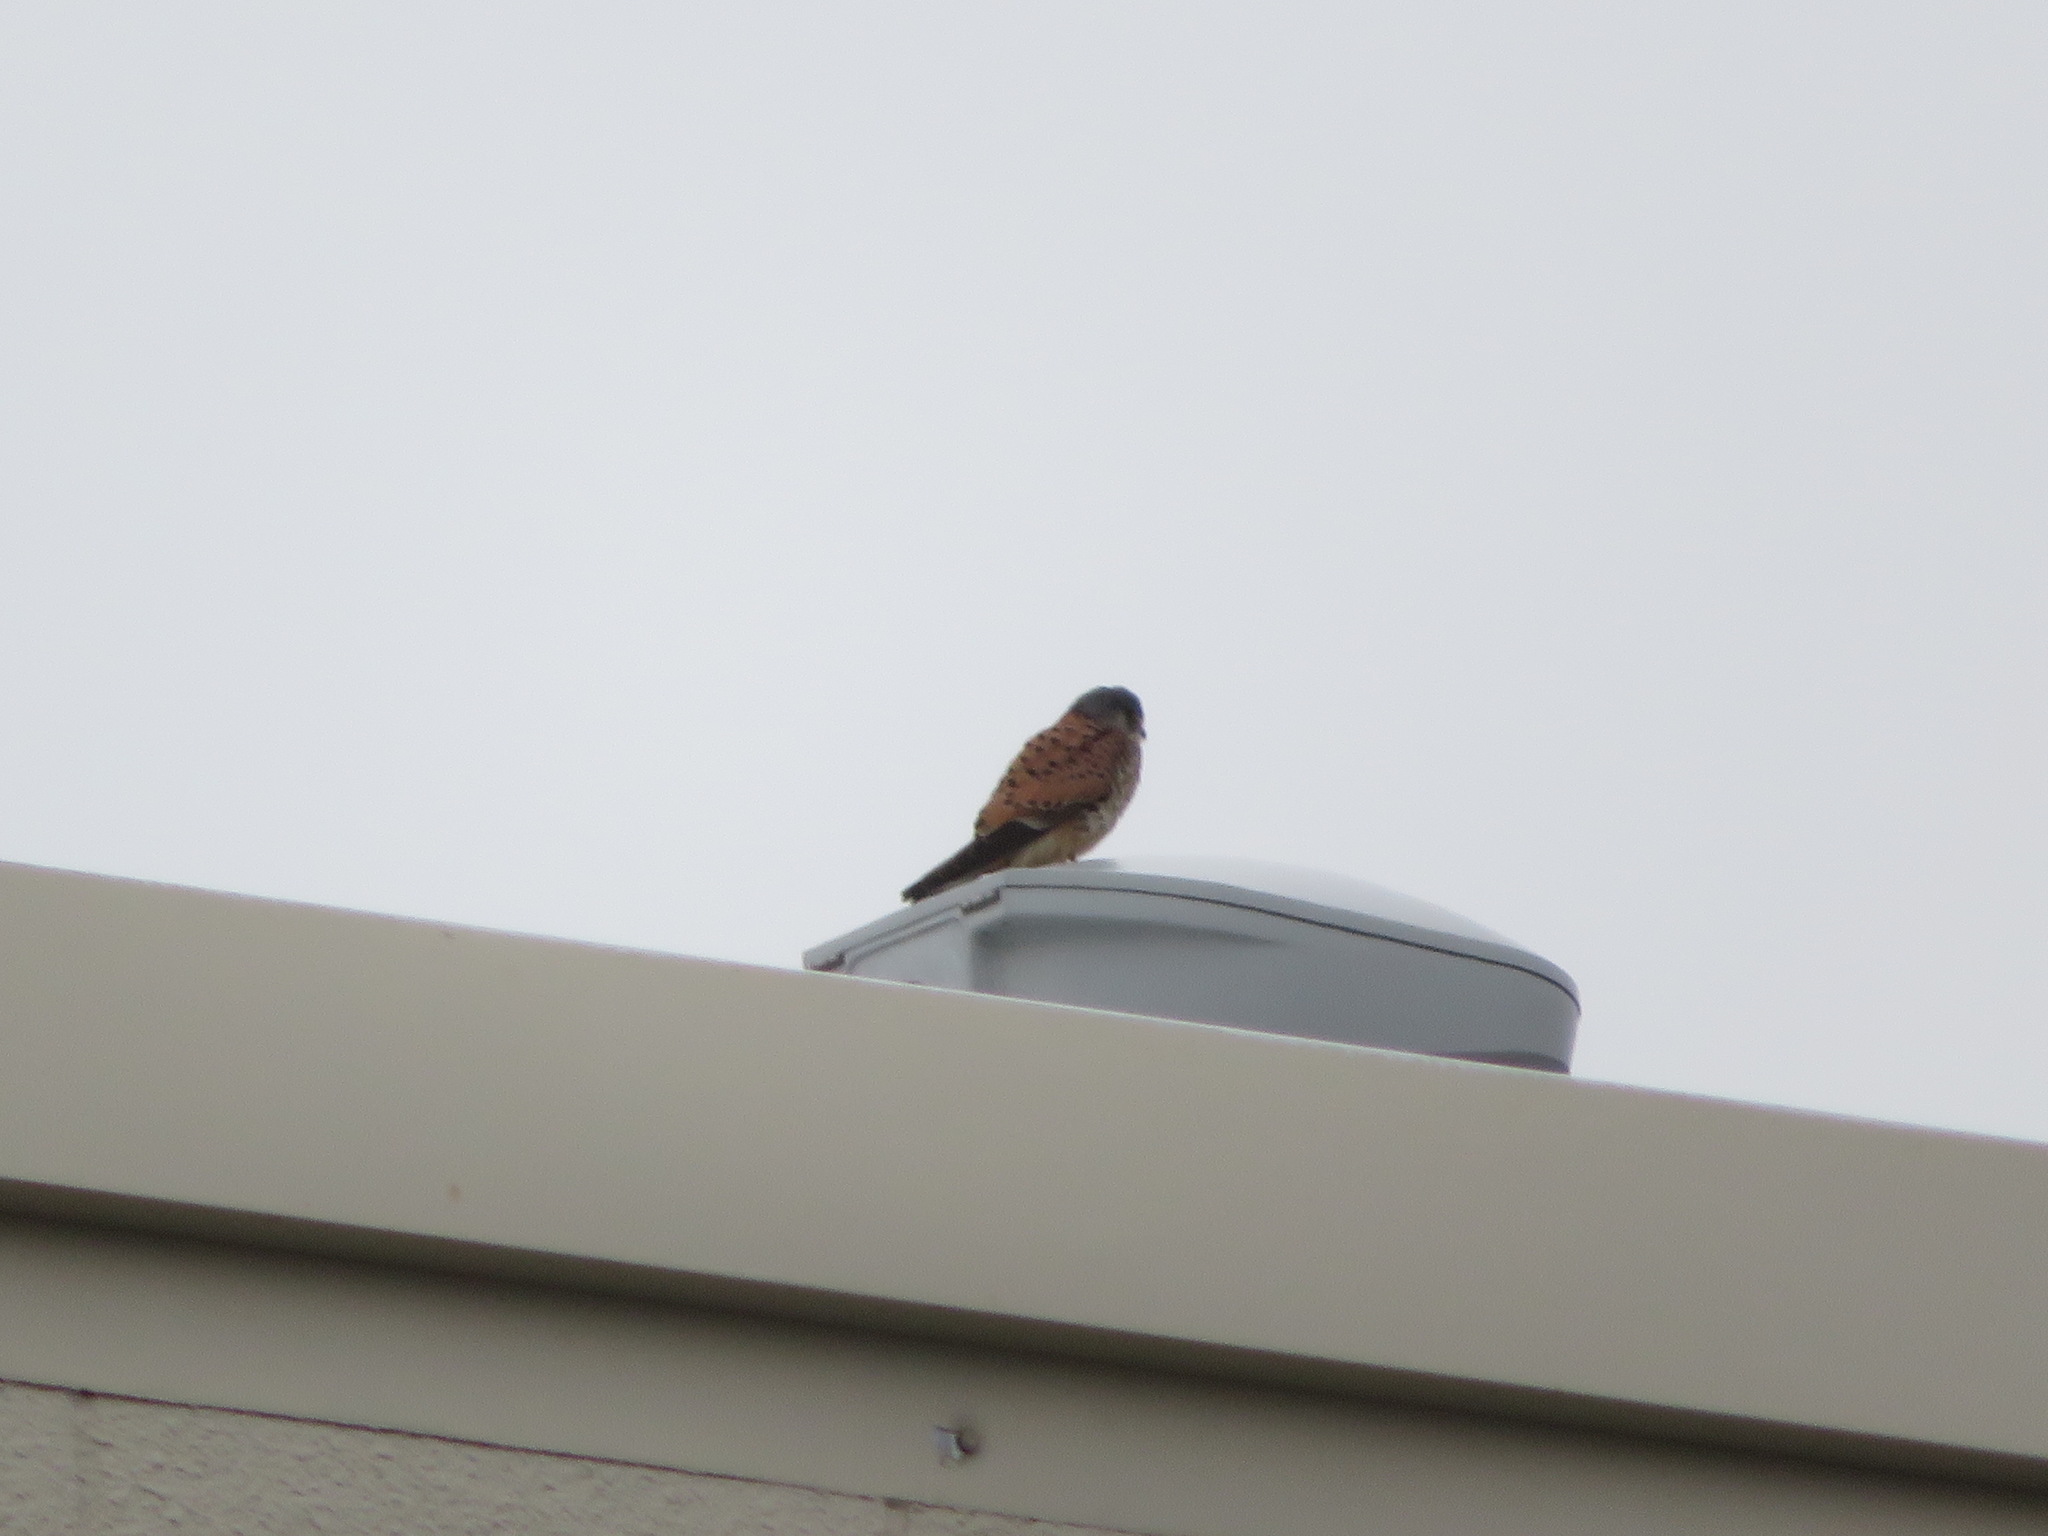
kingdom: Animalia
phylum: Chordata
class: Aves
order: Falconiformes
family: Falconidae
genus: Falco
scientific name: Falco tinnunculus
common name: Common kestrel
